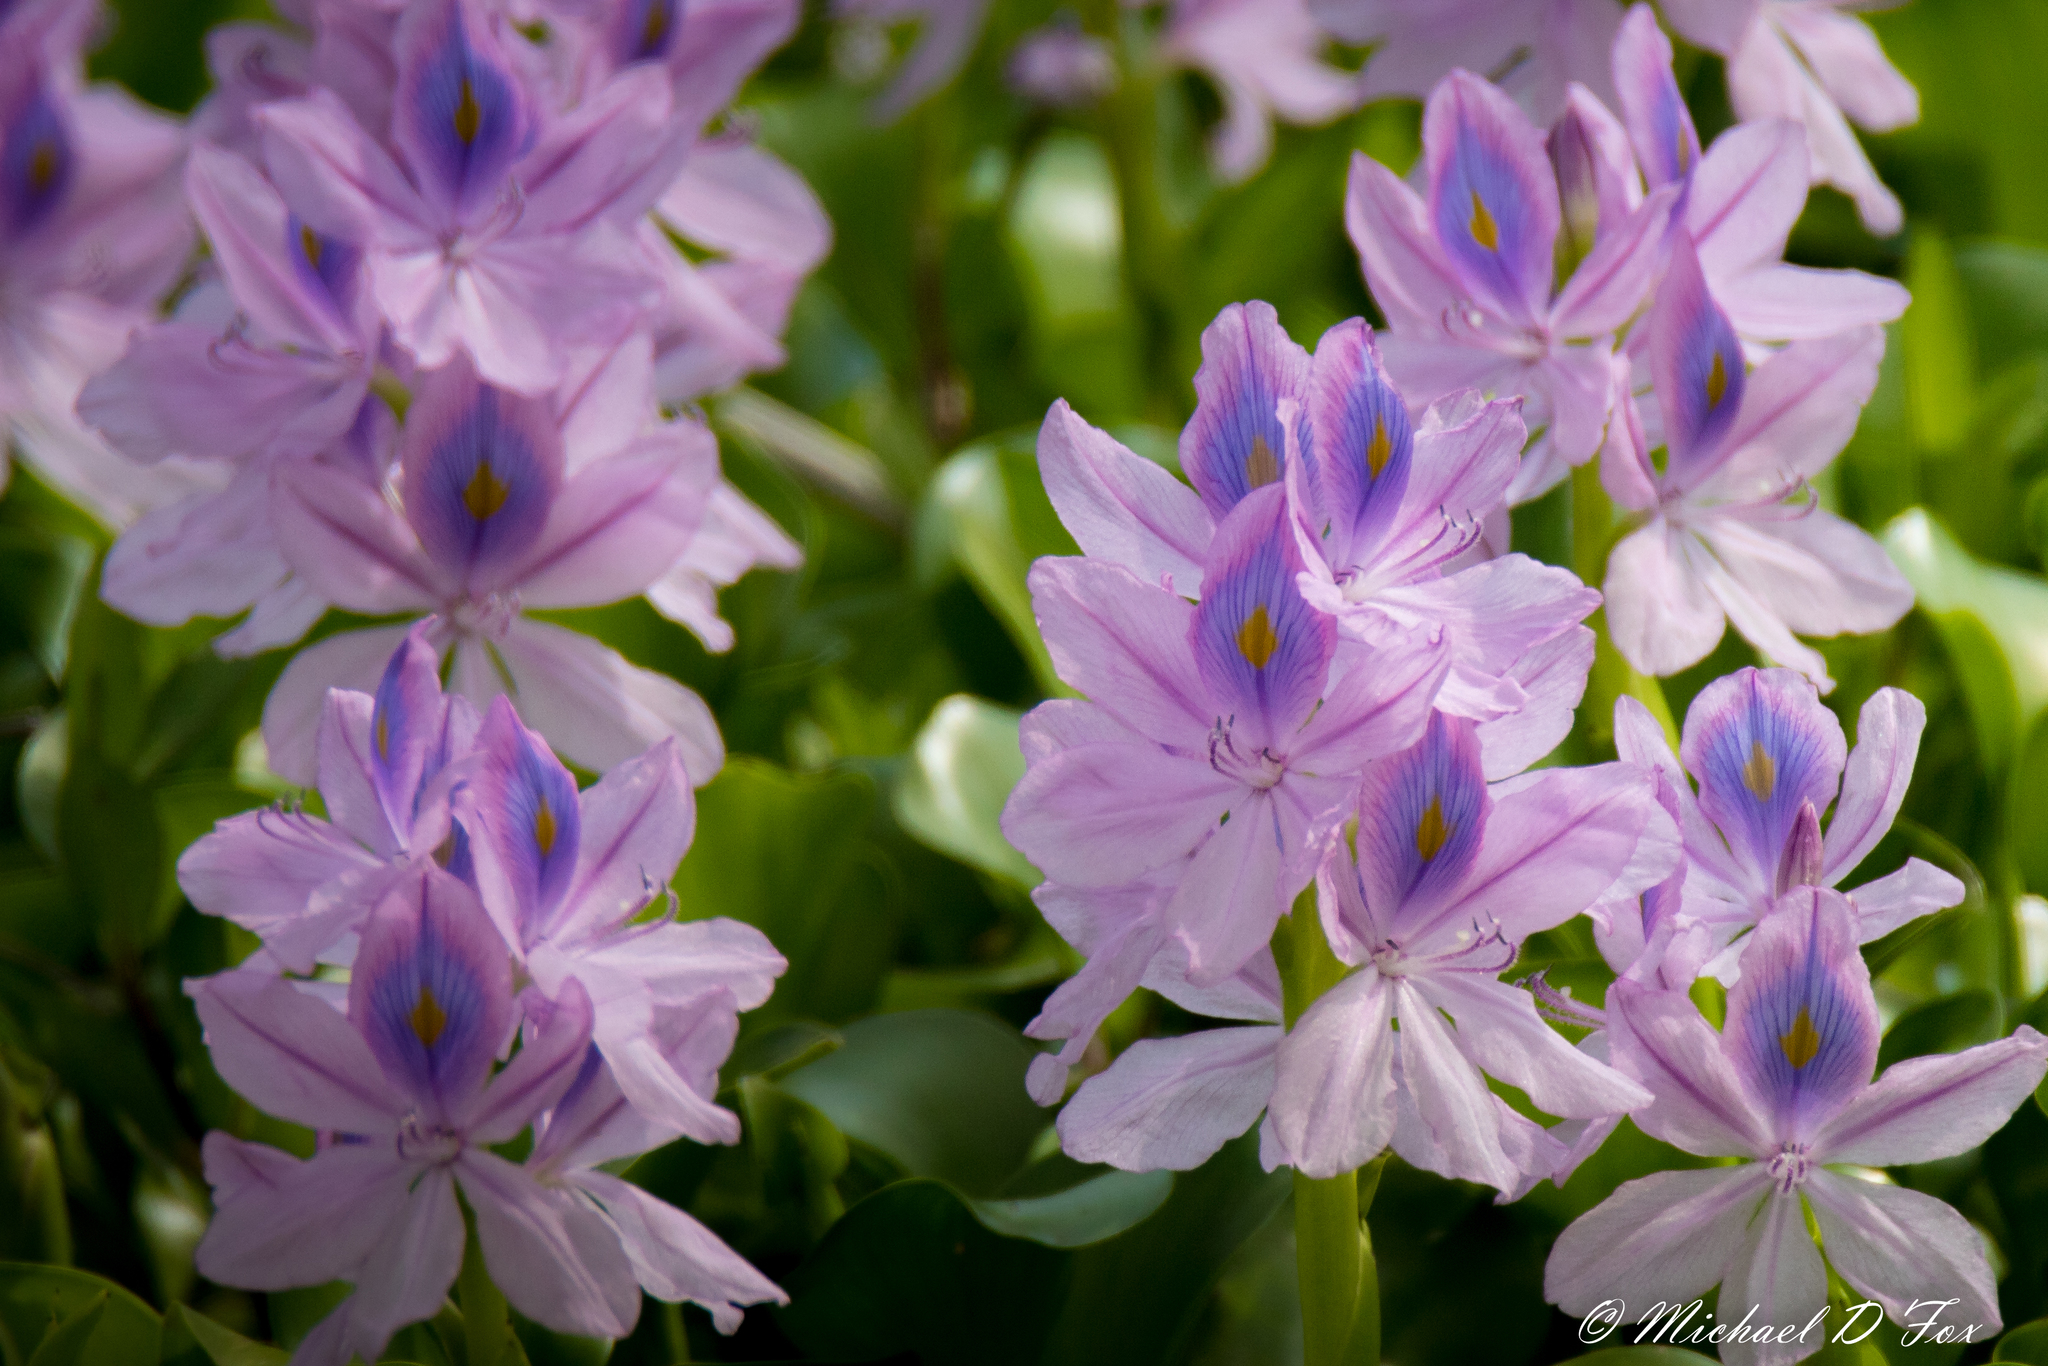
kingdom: Plantae
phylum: Tracheophyta
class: Liliopsida
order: Commelinales
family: Pontederiaceae
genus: Pontederia
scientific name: Pontederia crassipes
